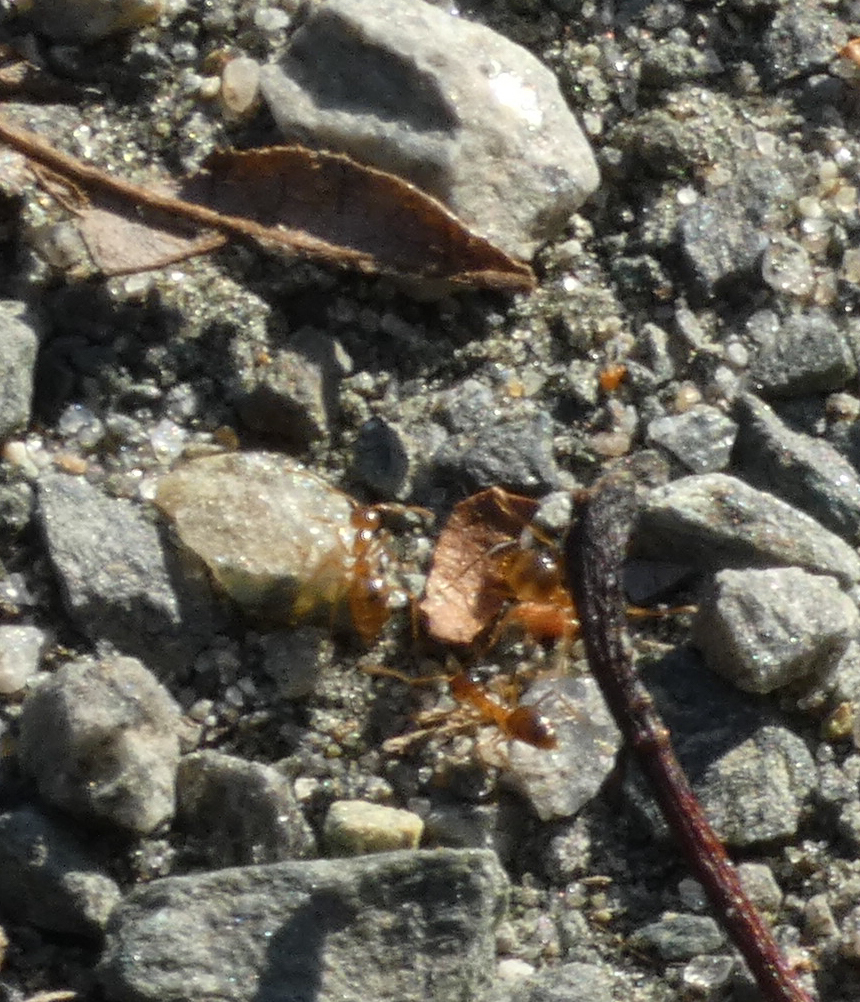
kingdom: Animalia
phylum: Arthropoda
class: Insecta
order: Hymenoptera
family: Formicidae
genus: Prenolepis
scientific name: Prenolepis imparis
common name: Small honey ant
